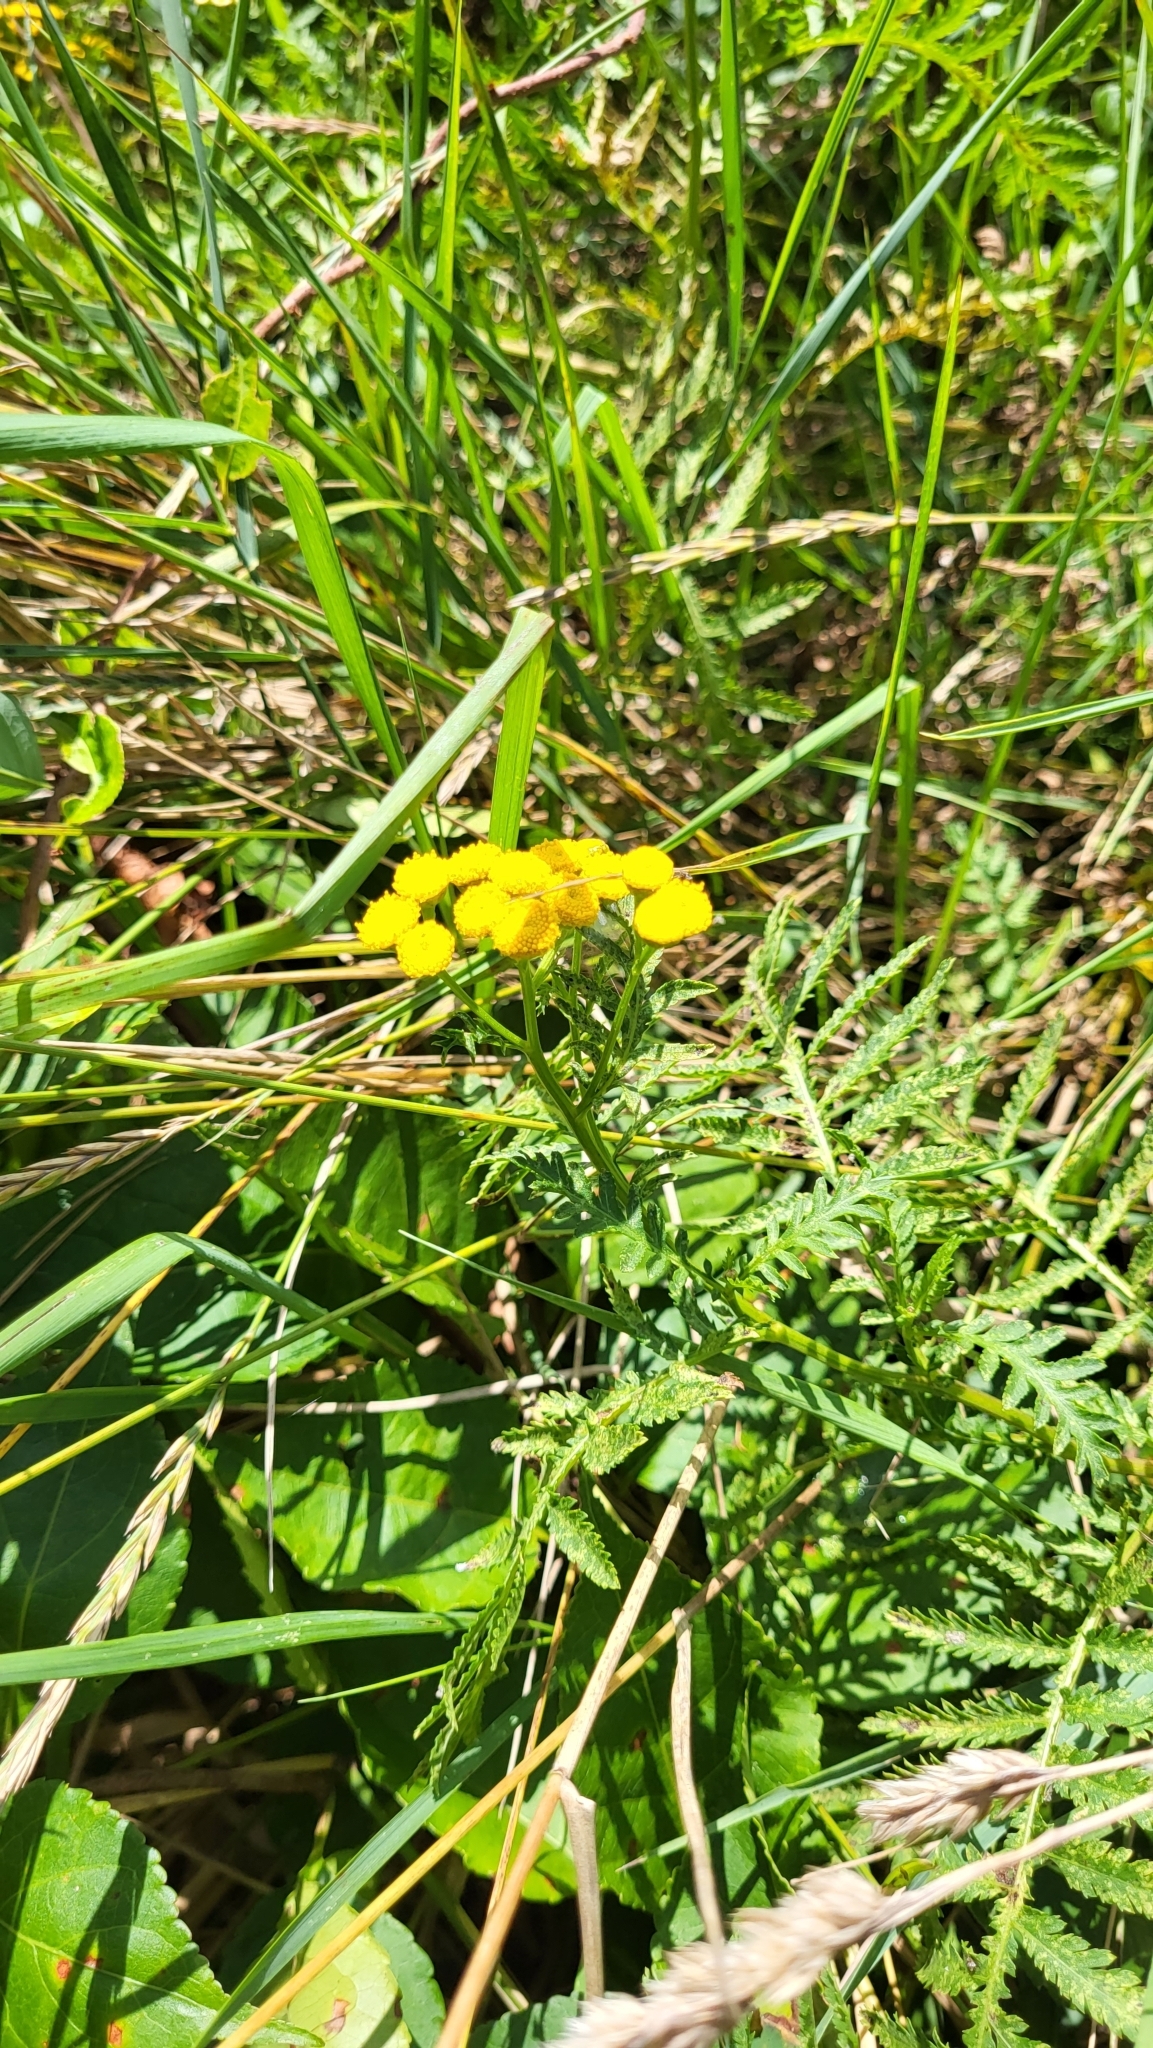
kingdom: Plantae
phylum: Tracheophyta
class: Magnoliopsida
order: Asterales
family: Asteraceae
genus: Tanacetum
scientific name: Tanacetum vulgare
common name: Common tansy
